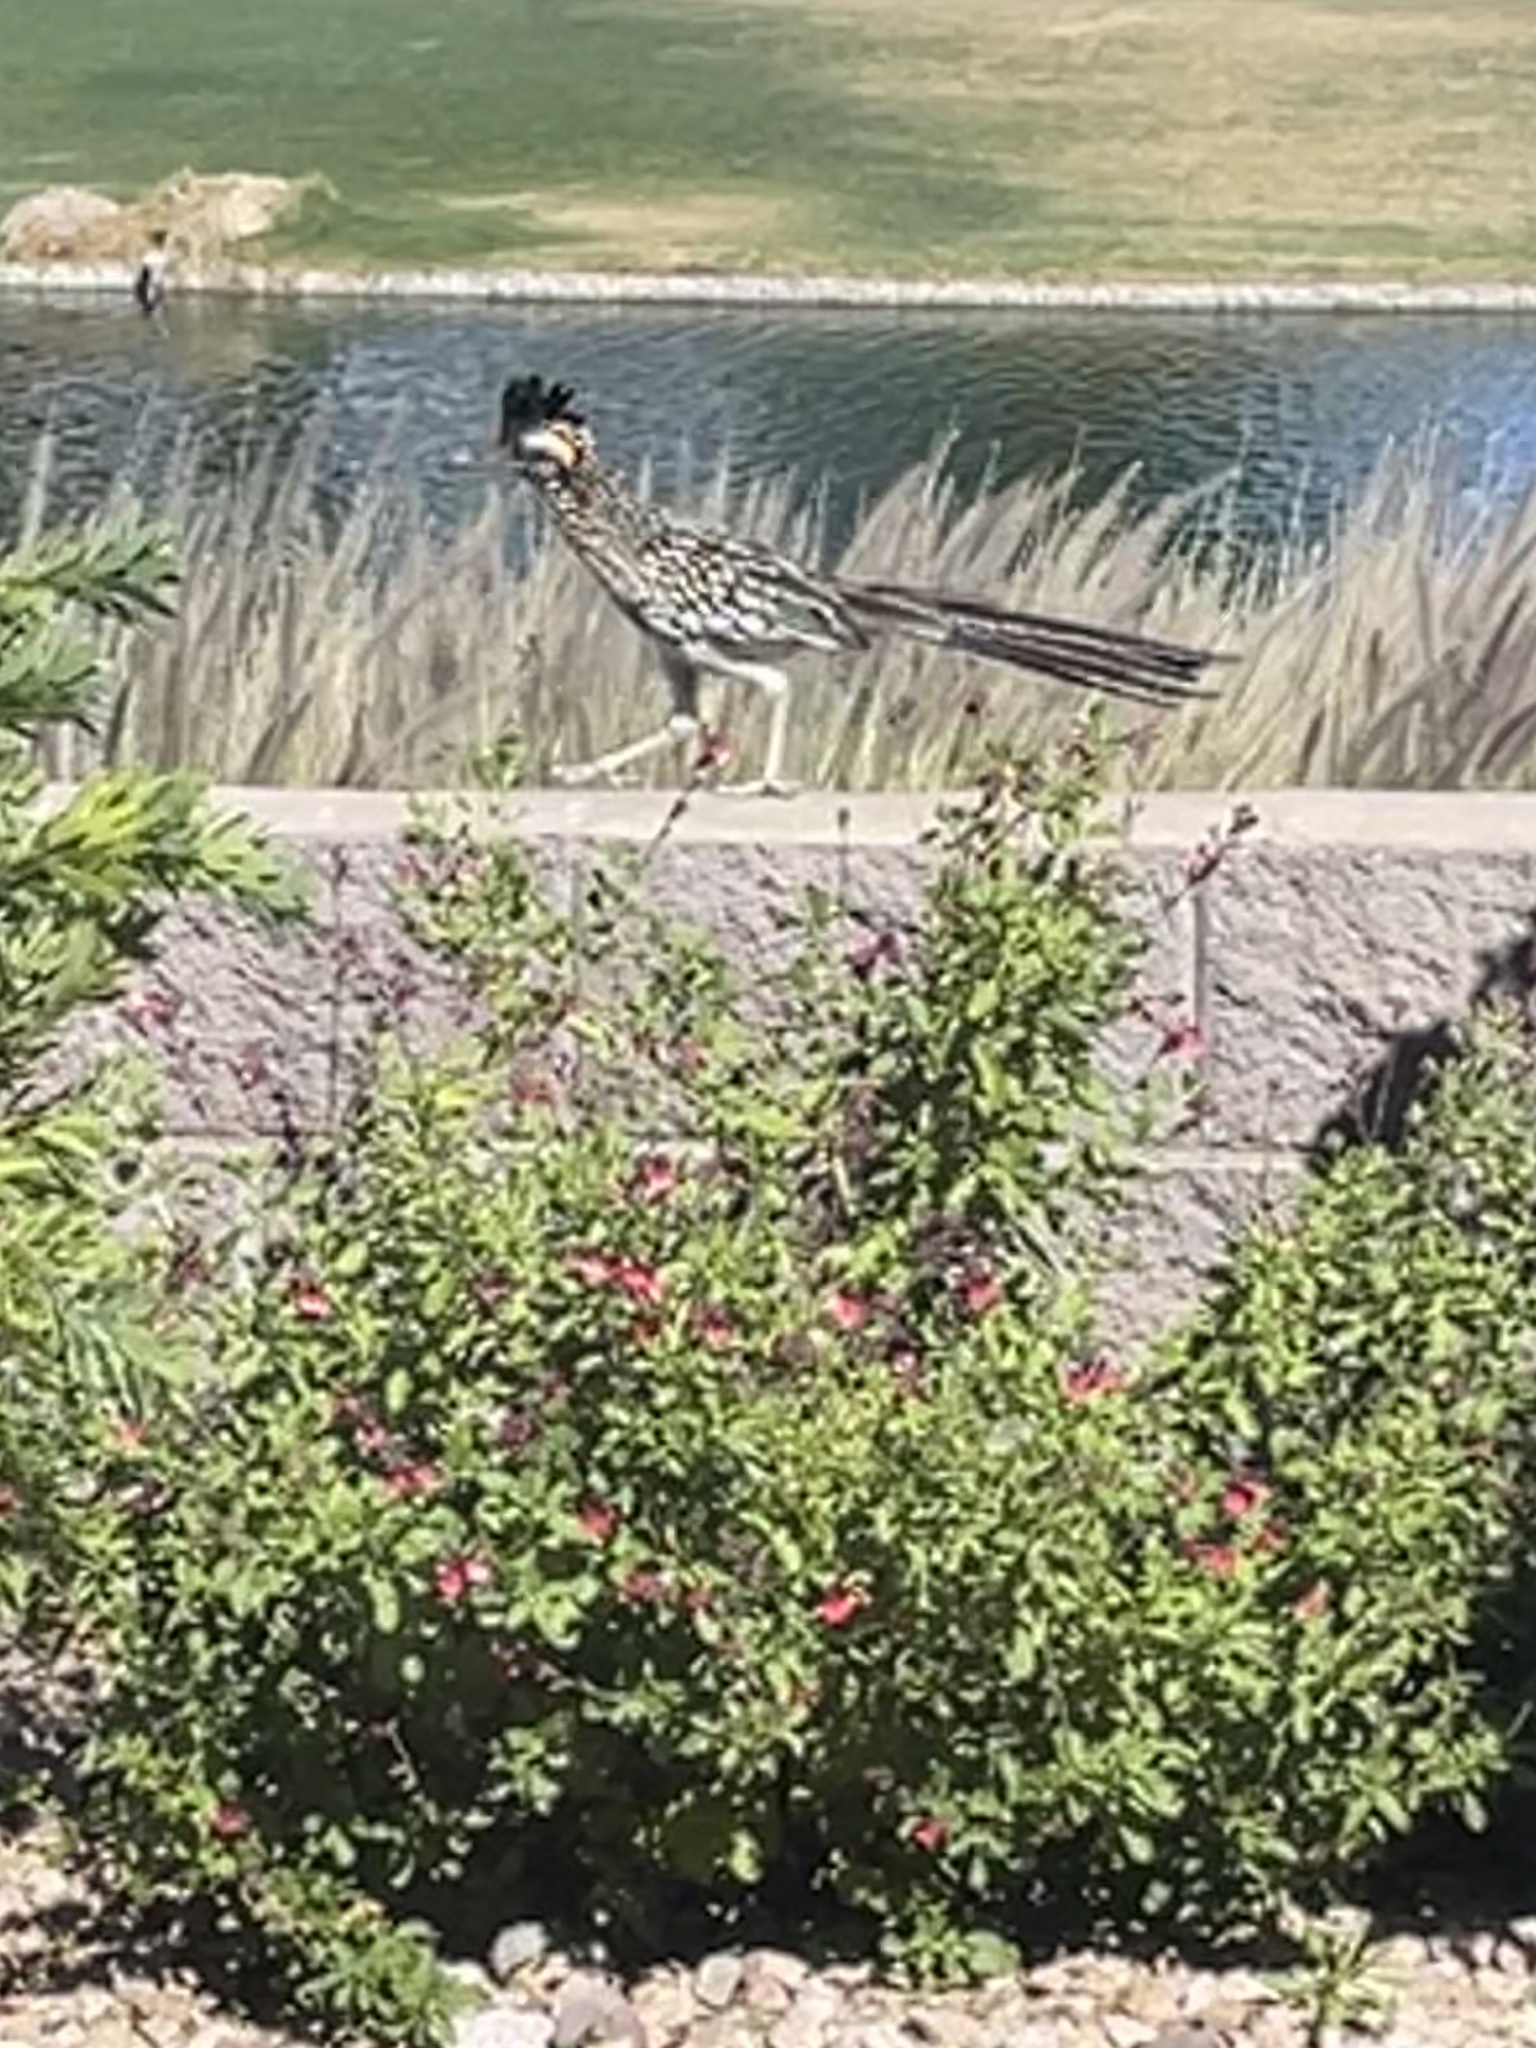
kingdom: Animalia
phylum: Chordata
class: Aves
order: Cuculiformes
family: Cuculidae
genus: Geococcyx
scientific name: Geococcyx californianus
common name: Greater roadrunner
